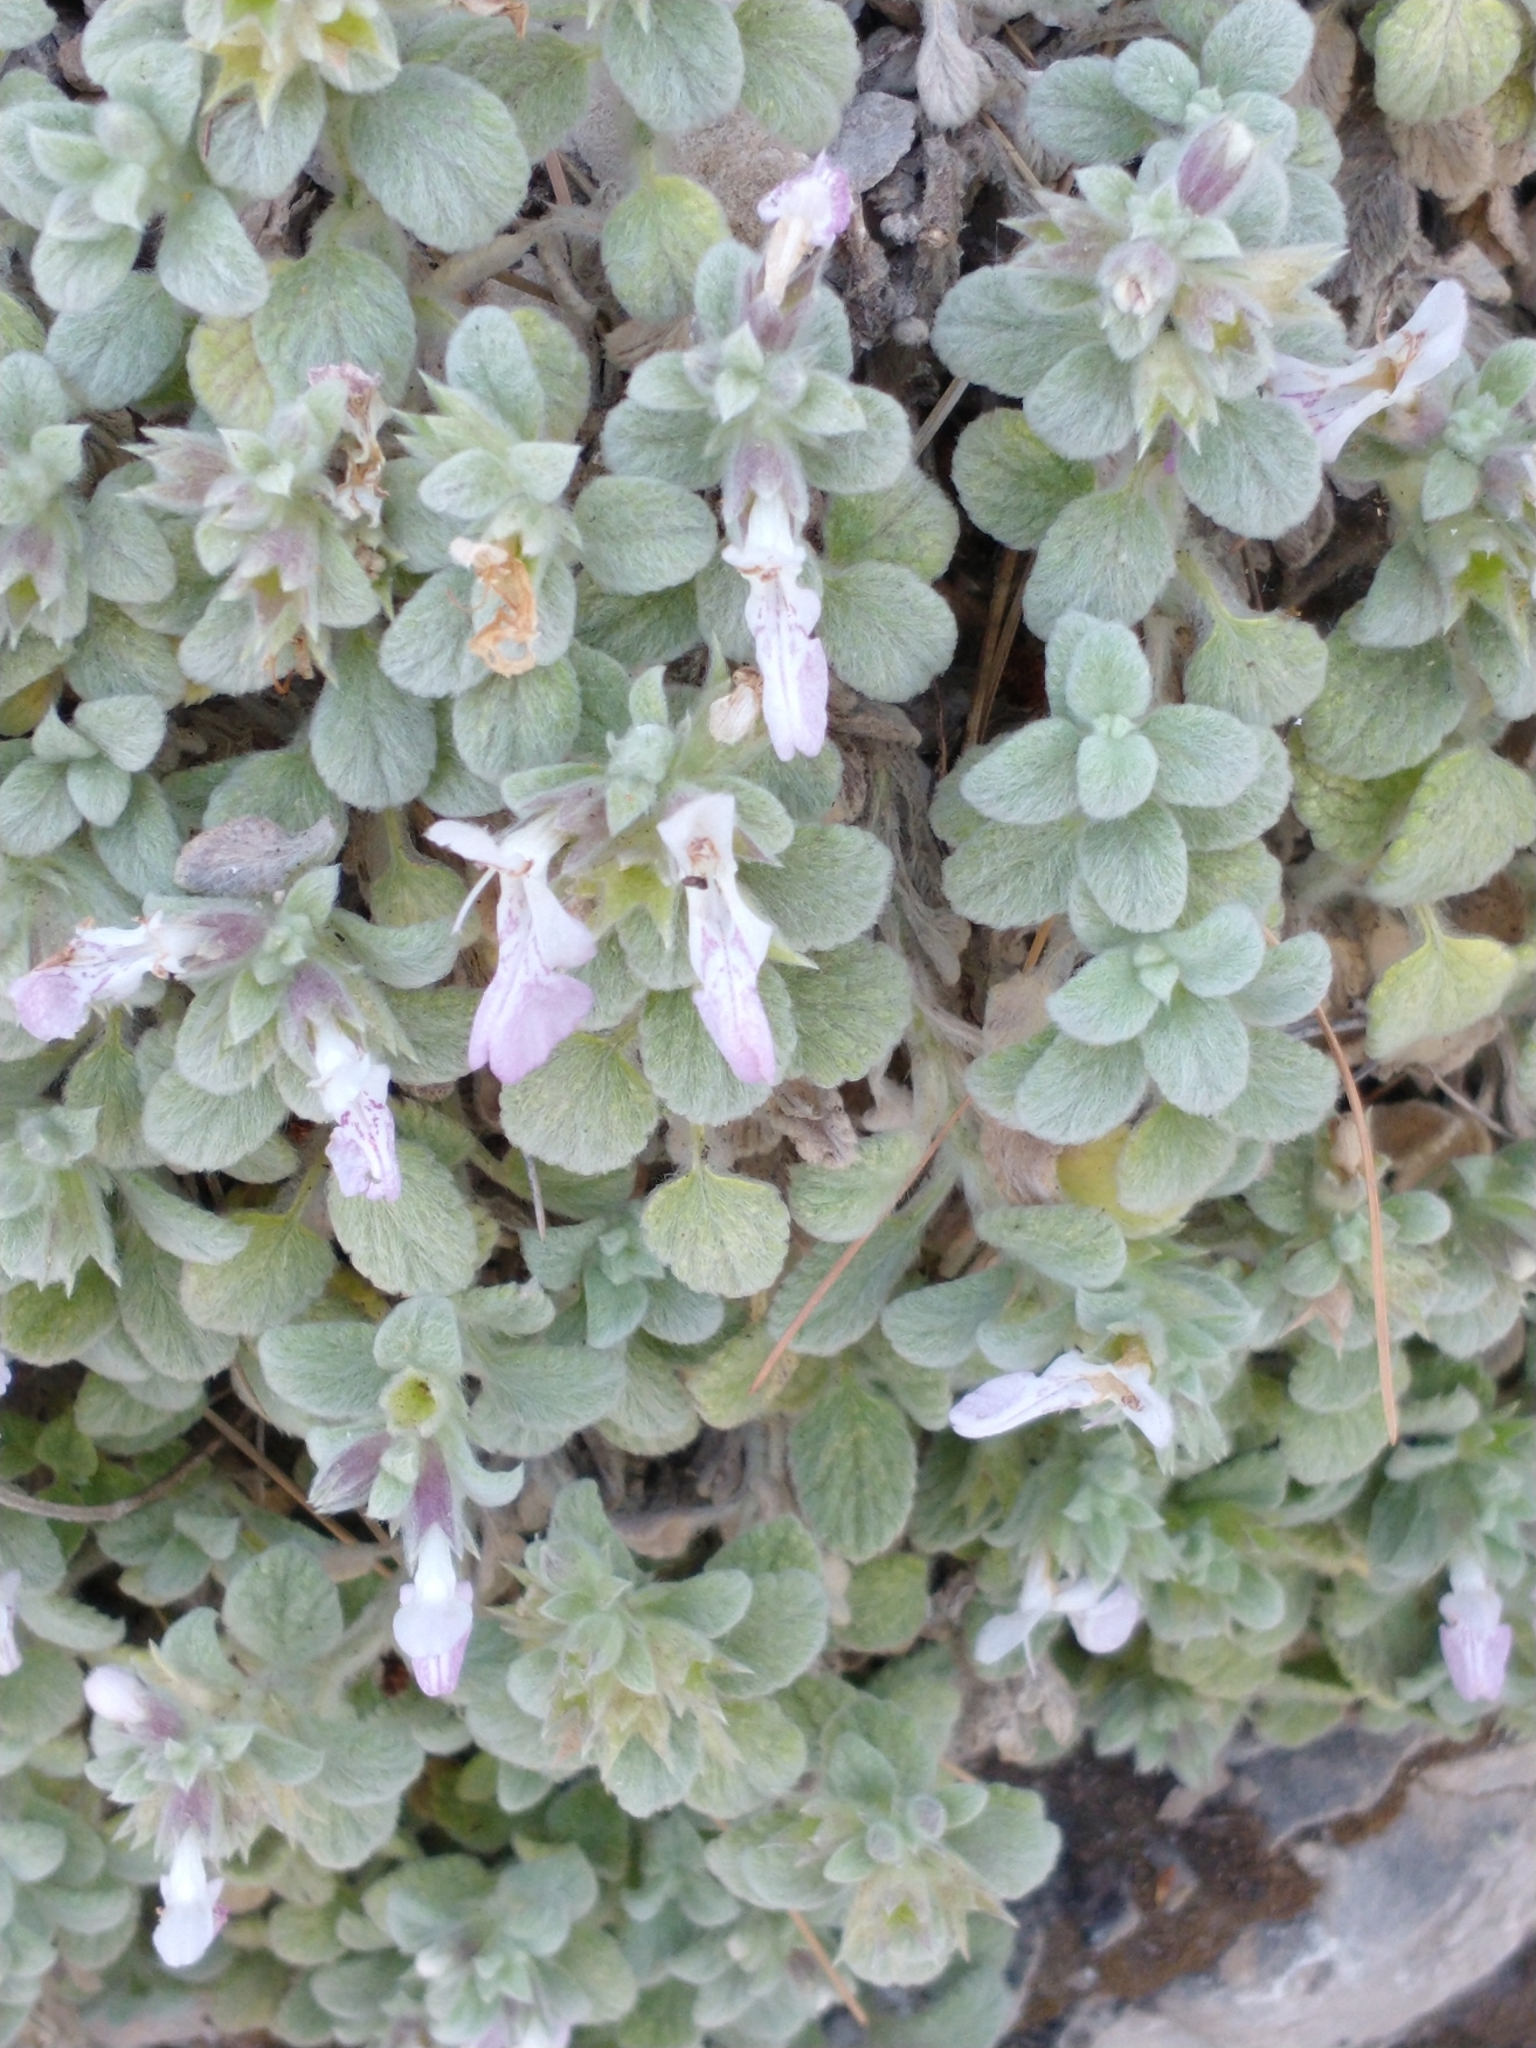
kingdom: Plantae
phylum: Tracheophyta
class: Magnoliopsida
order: Lamiales
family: Lamiaceae
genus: Stachys
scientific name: Stachys ionica
